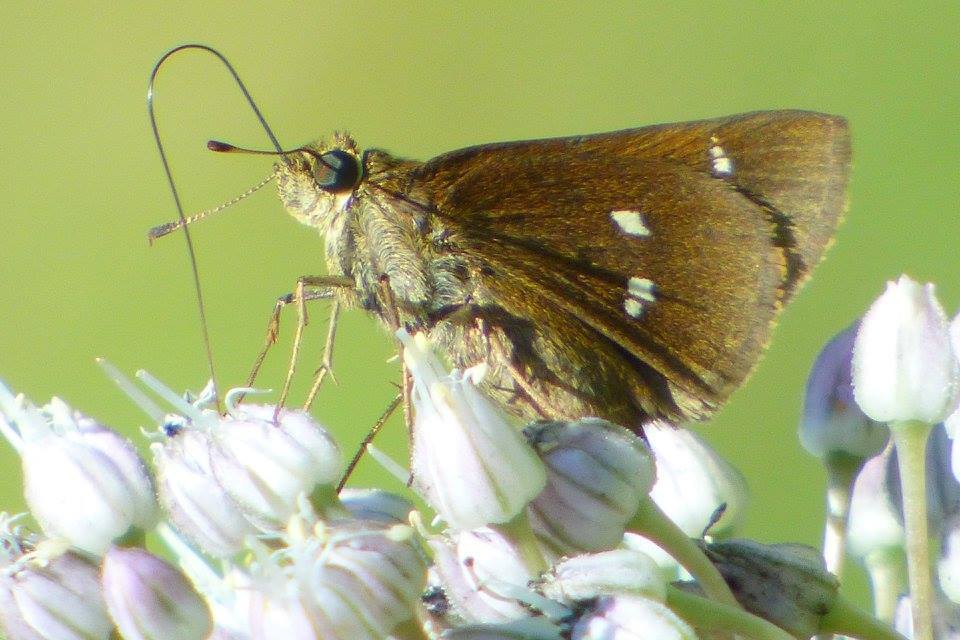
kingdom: Animalia
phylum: Arthropoda
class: Insecta
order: Lepidoptera
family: Hesperiidae
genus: Oligoria
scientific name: Oligoria maculata
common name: Twin-spot skipper
